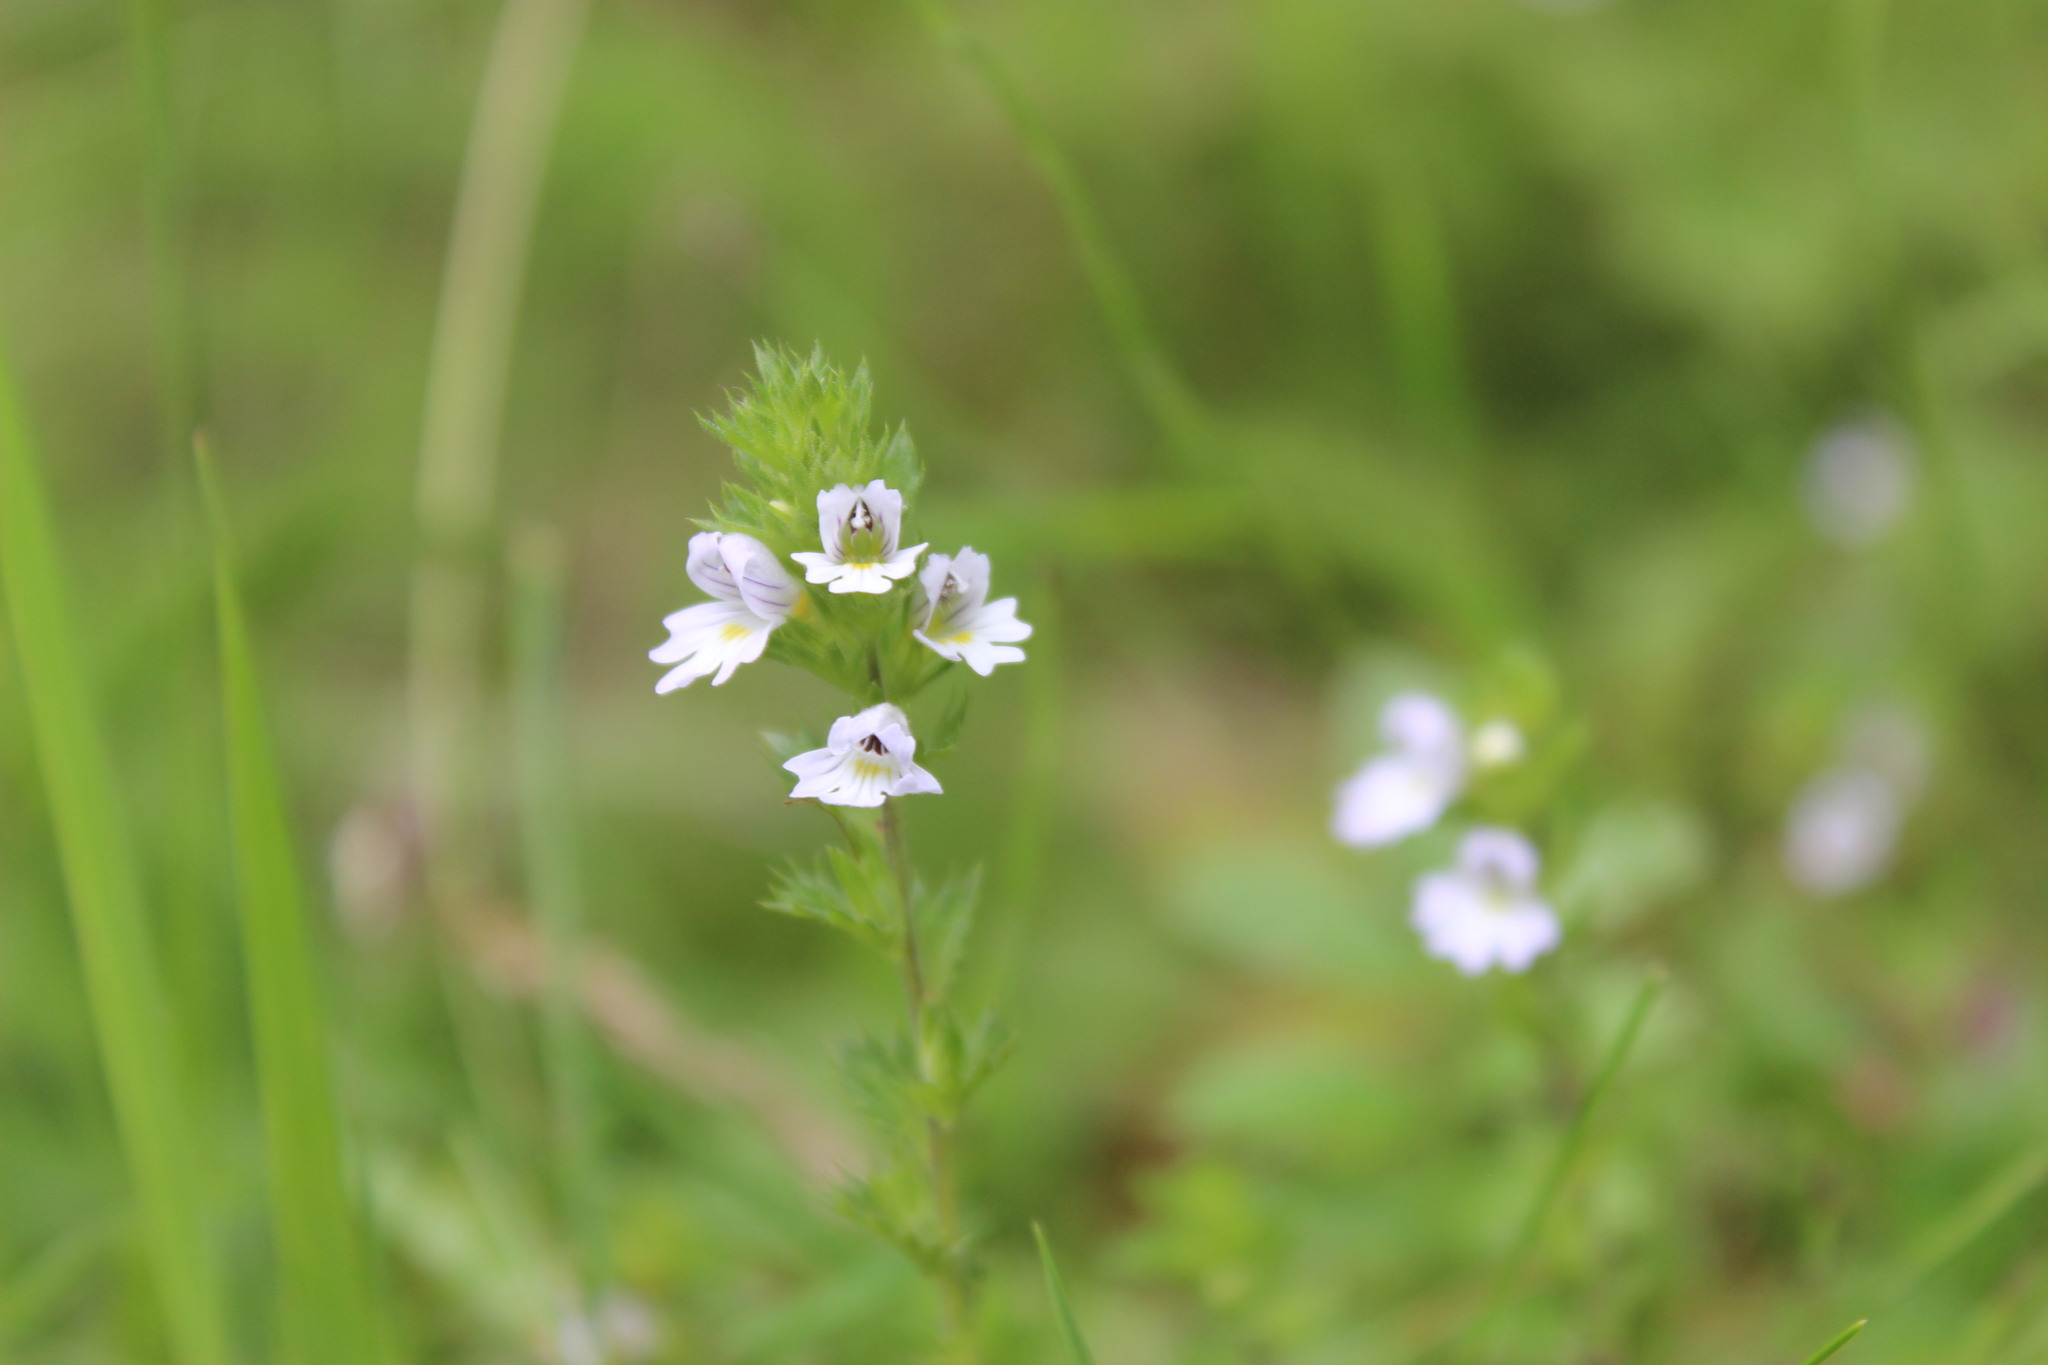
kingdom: Plantae
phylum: Tracheophyta
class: Magnoliopsida
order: Lamiales
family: Orobanchaceae
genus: Euphrasia
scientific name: Euphrasia stricta
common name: Drug eyebright
